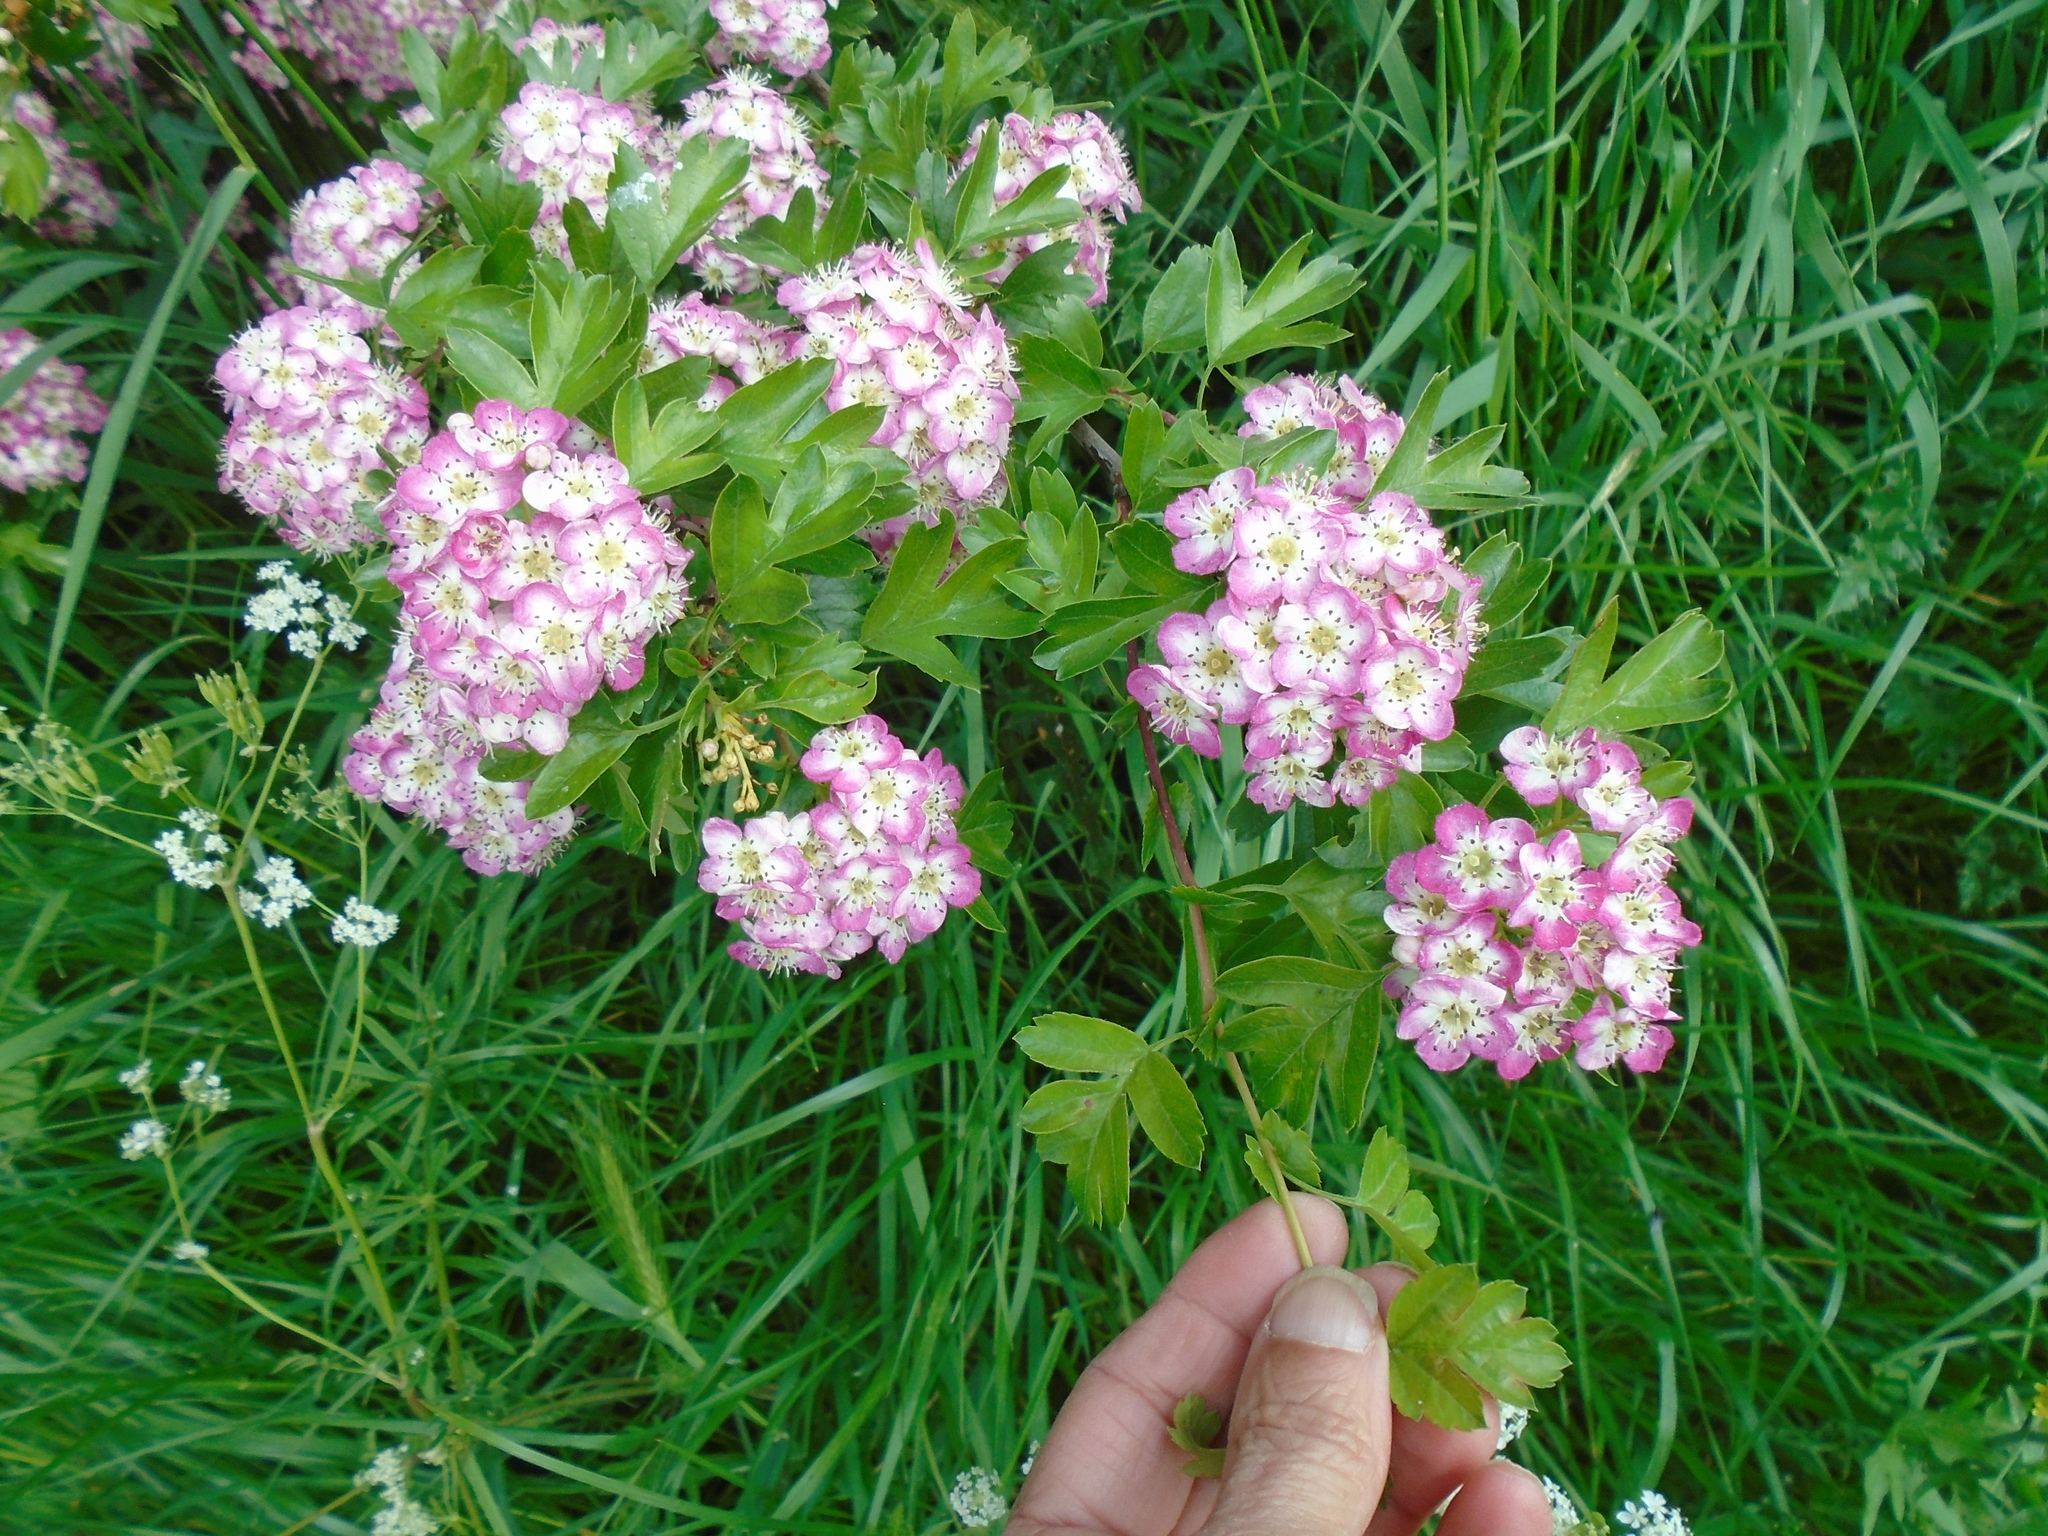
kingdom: Plantae
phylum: Tracheophyta
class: Magnoliopsida
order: Rosales
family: Rosaceae
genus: Crataegus
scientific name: Crataegus monogyna
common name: Hawthorn
